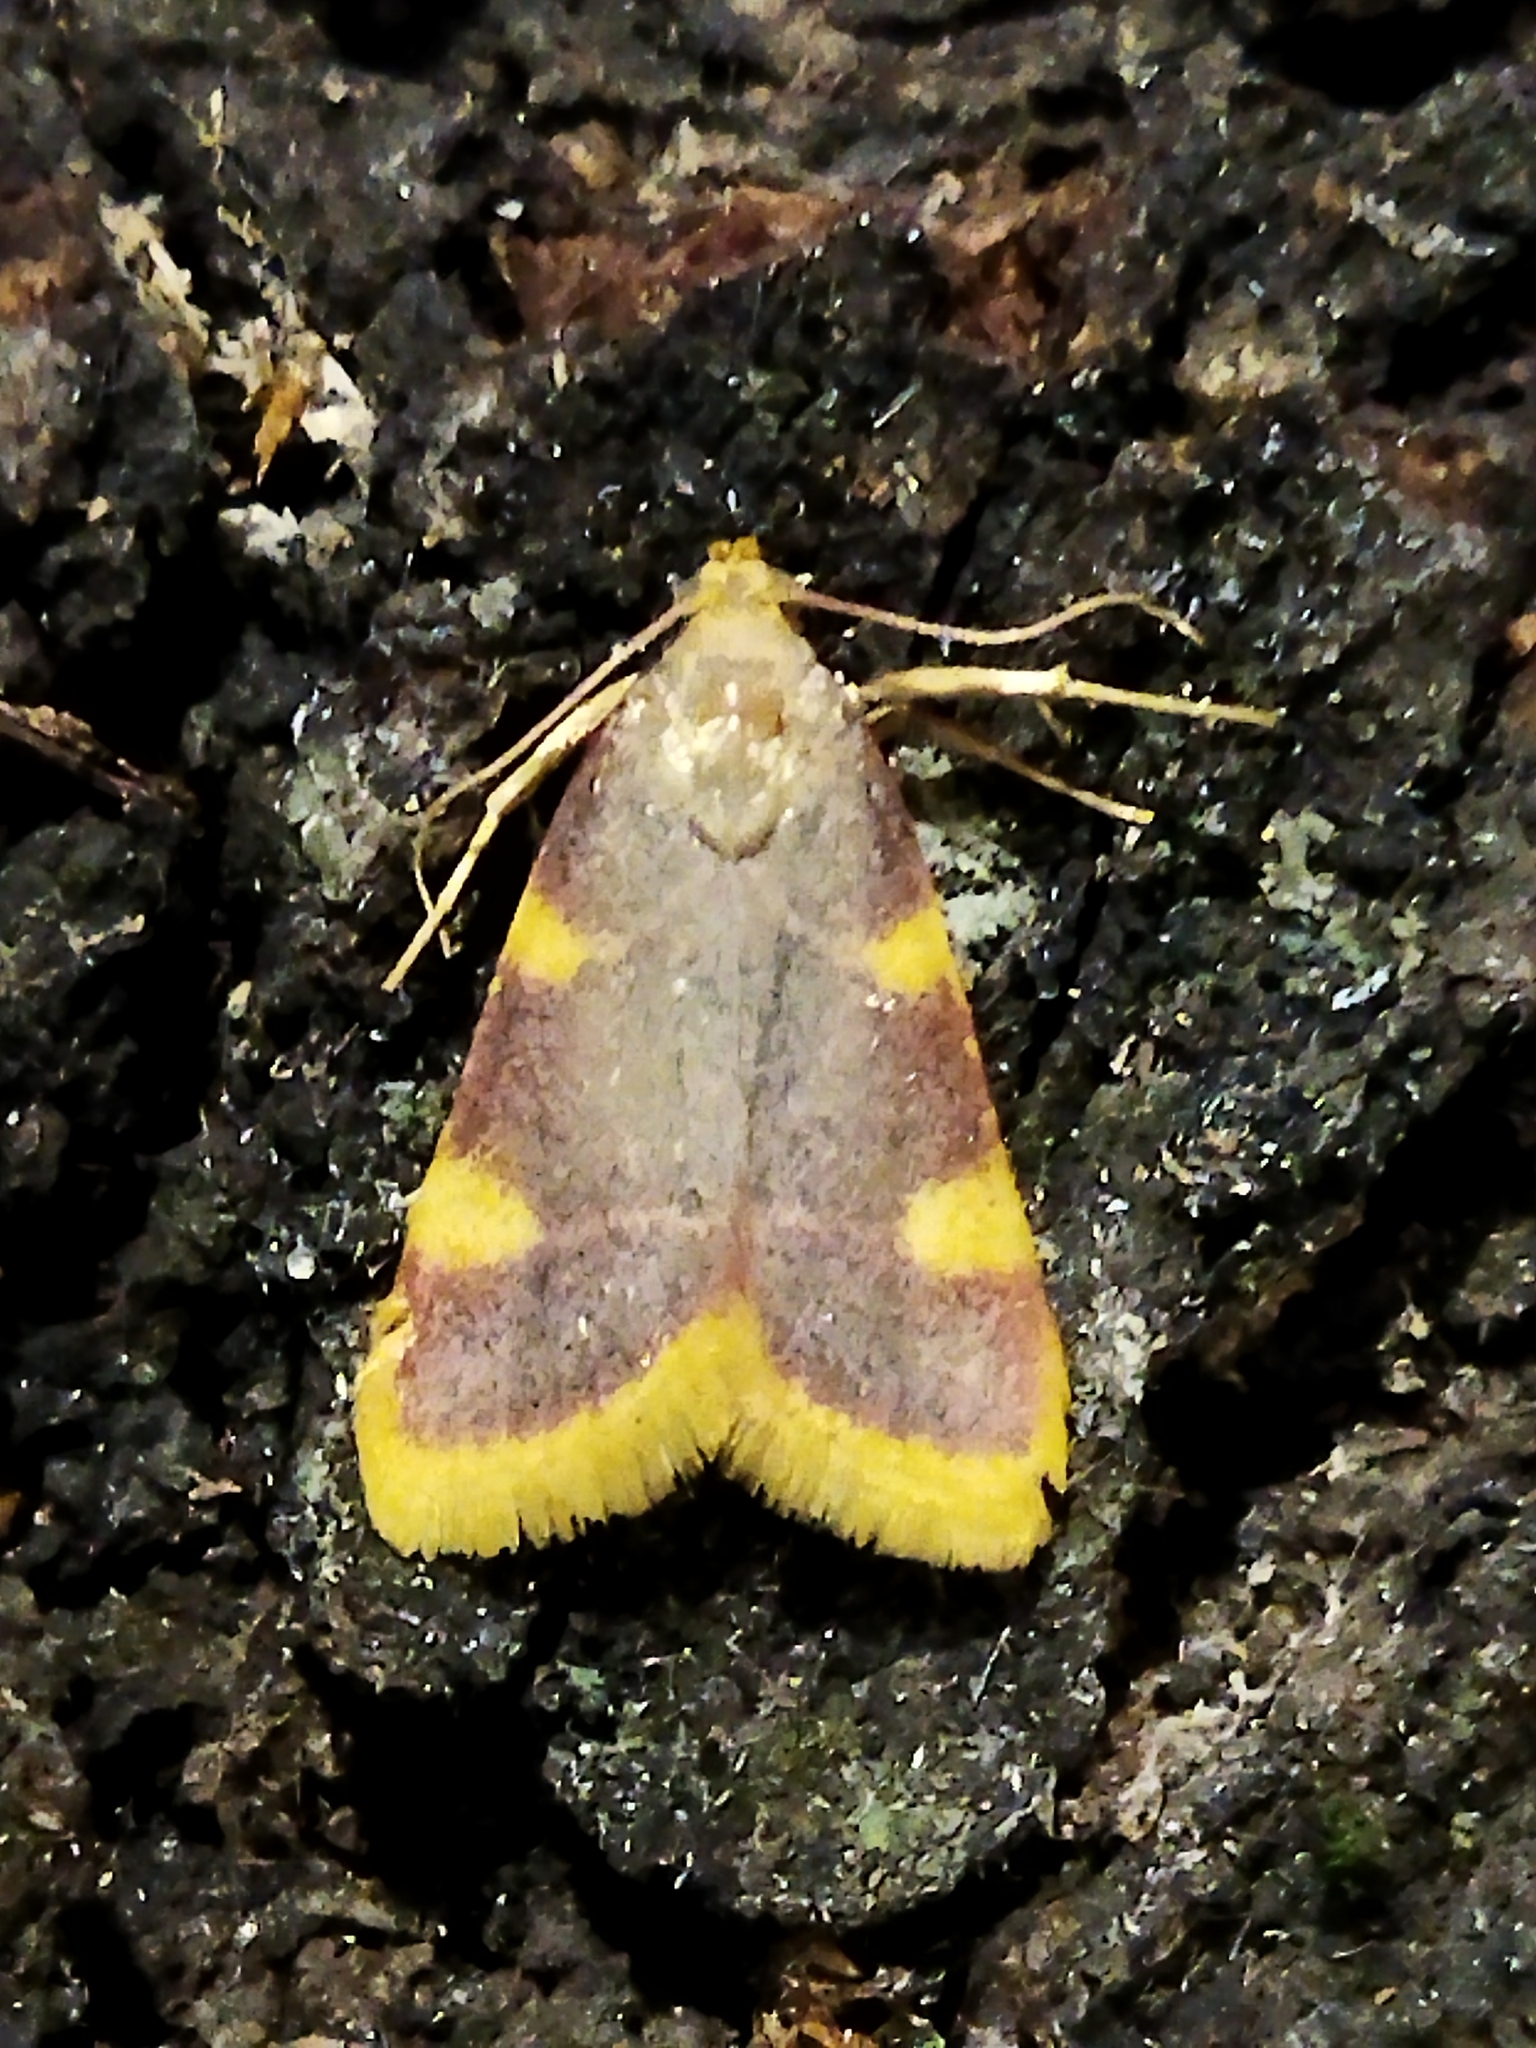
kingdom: Animalia
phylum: Arthropoda
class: Insecta
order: Lepidoptera
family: Pyralidae
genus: Hypsopygia
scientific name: Hypsopygia costalis
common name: Gold triangle
